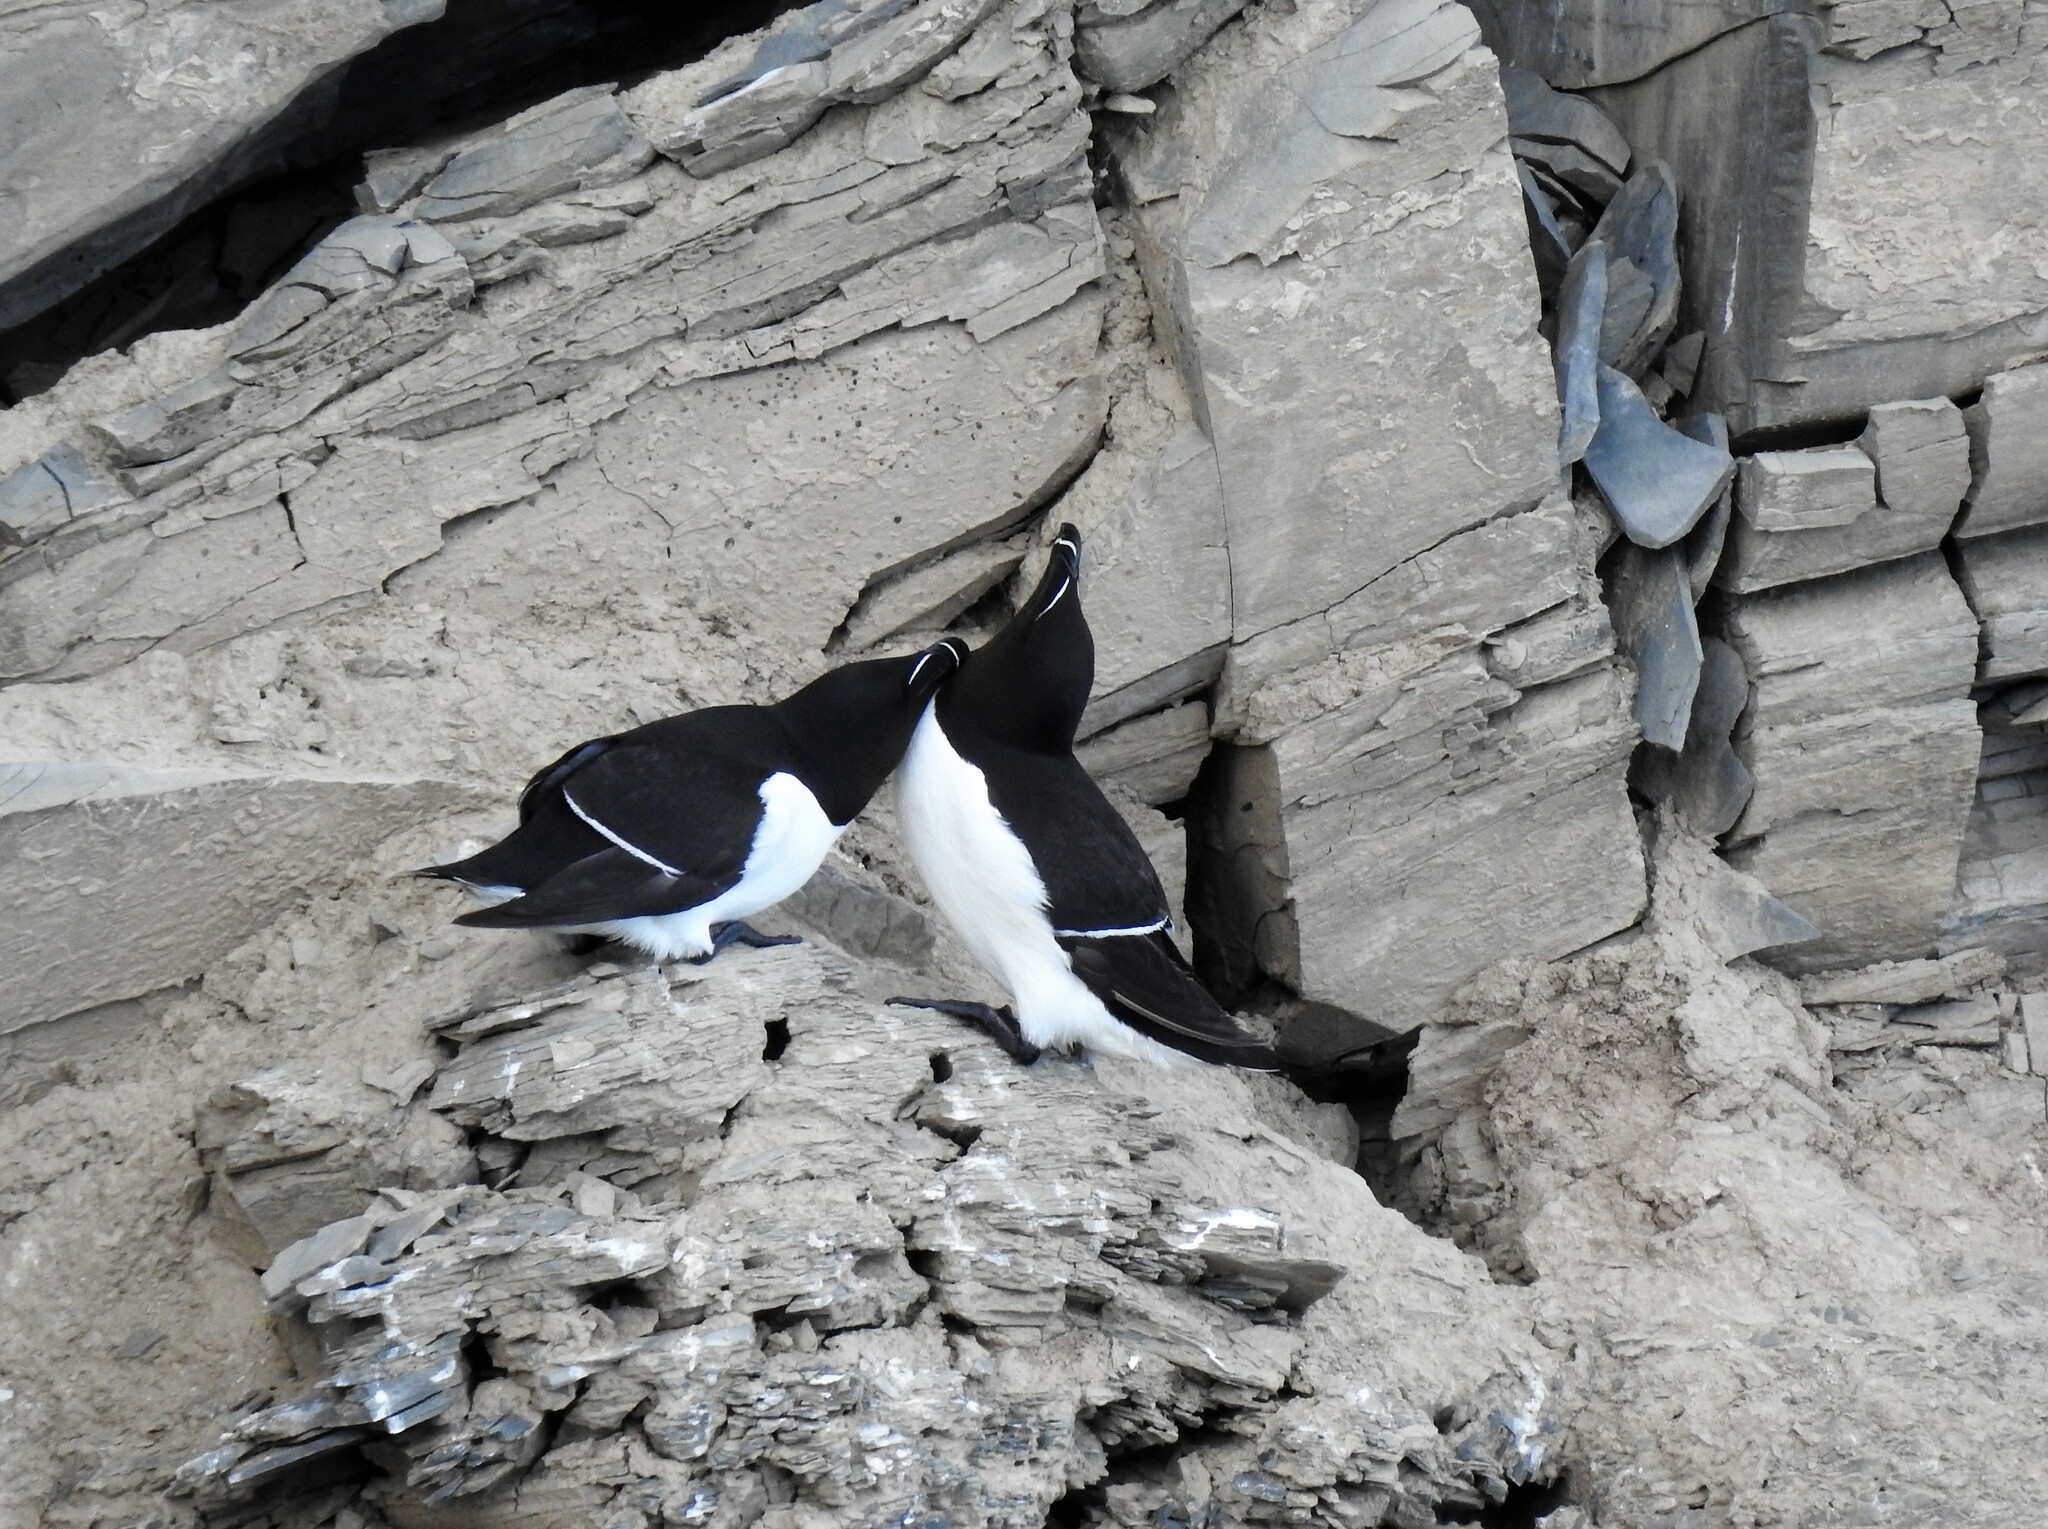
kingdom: Animalia
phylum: Chordata
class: Aves
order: Charadriiformes
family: Alcidae
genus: Alca
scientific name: Alca torda
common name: Razorbill
